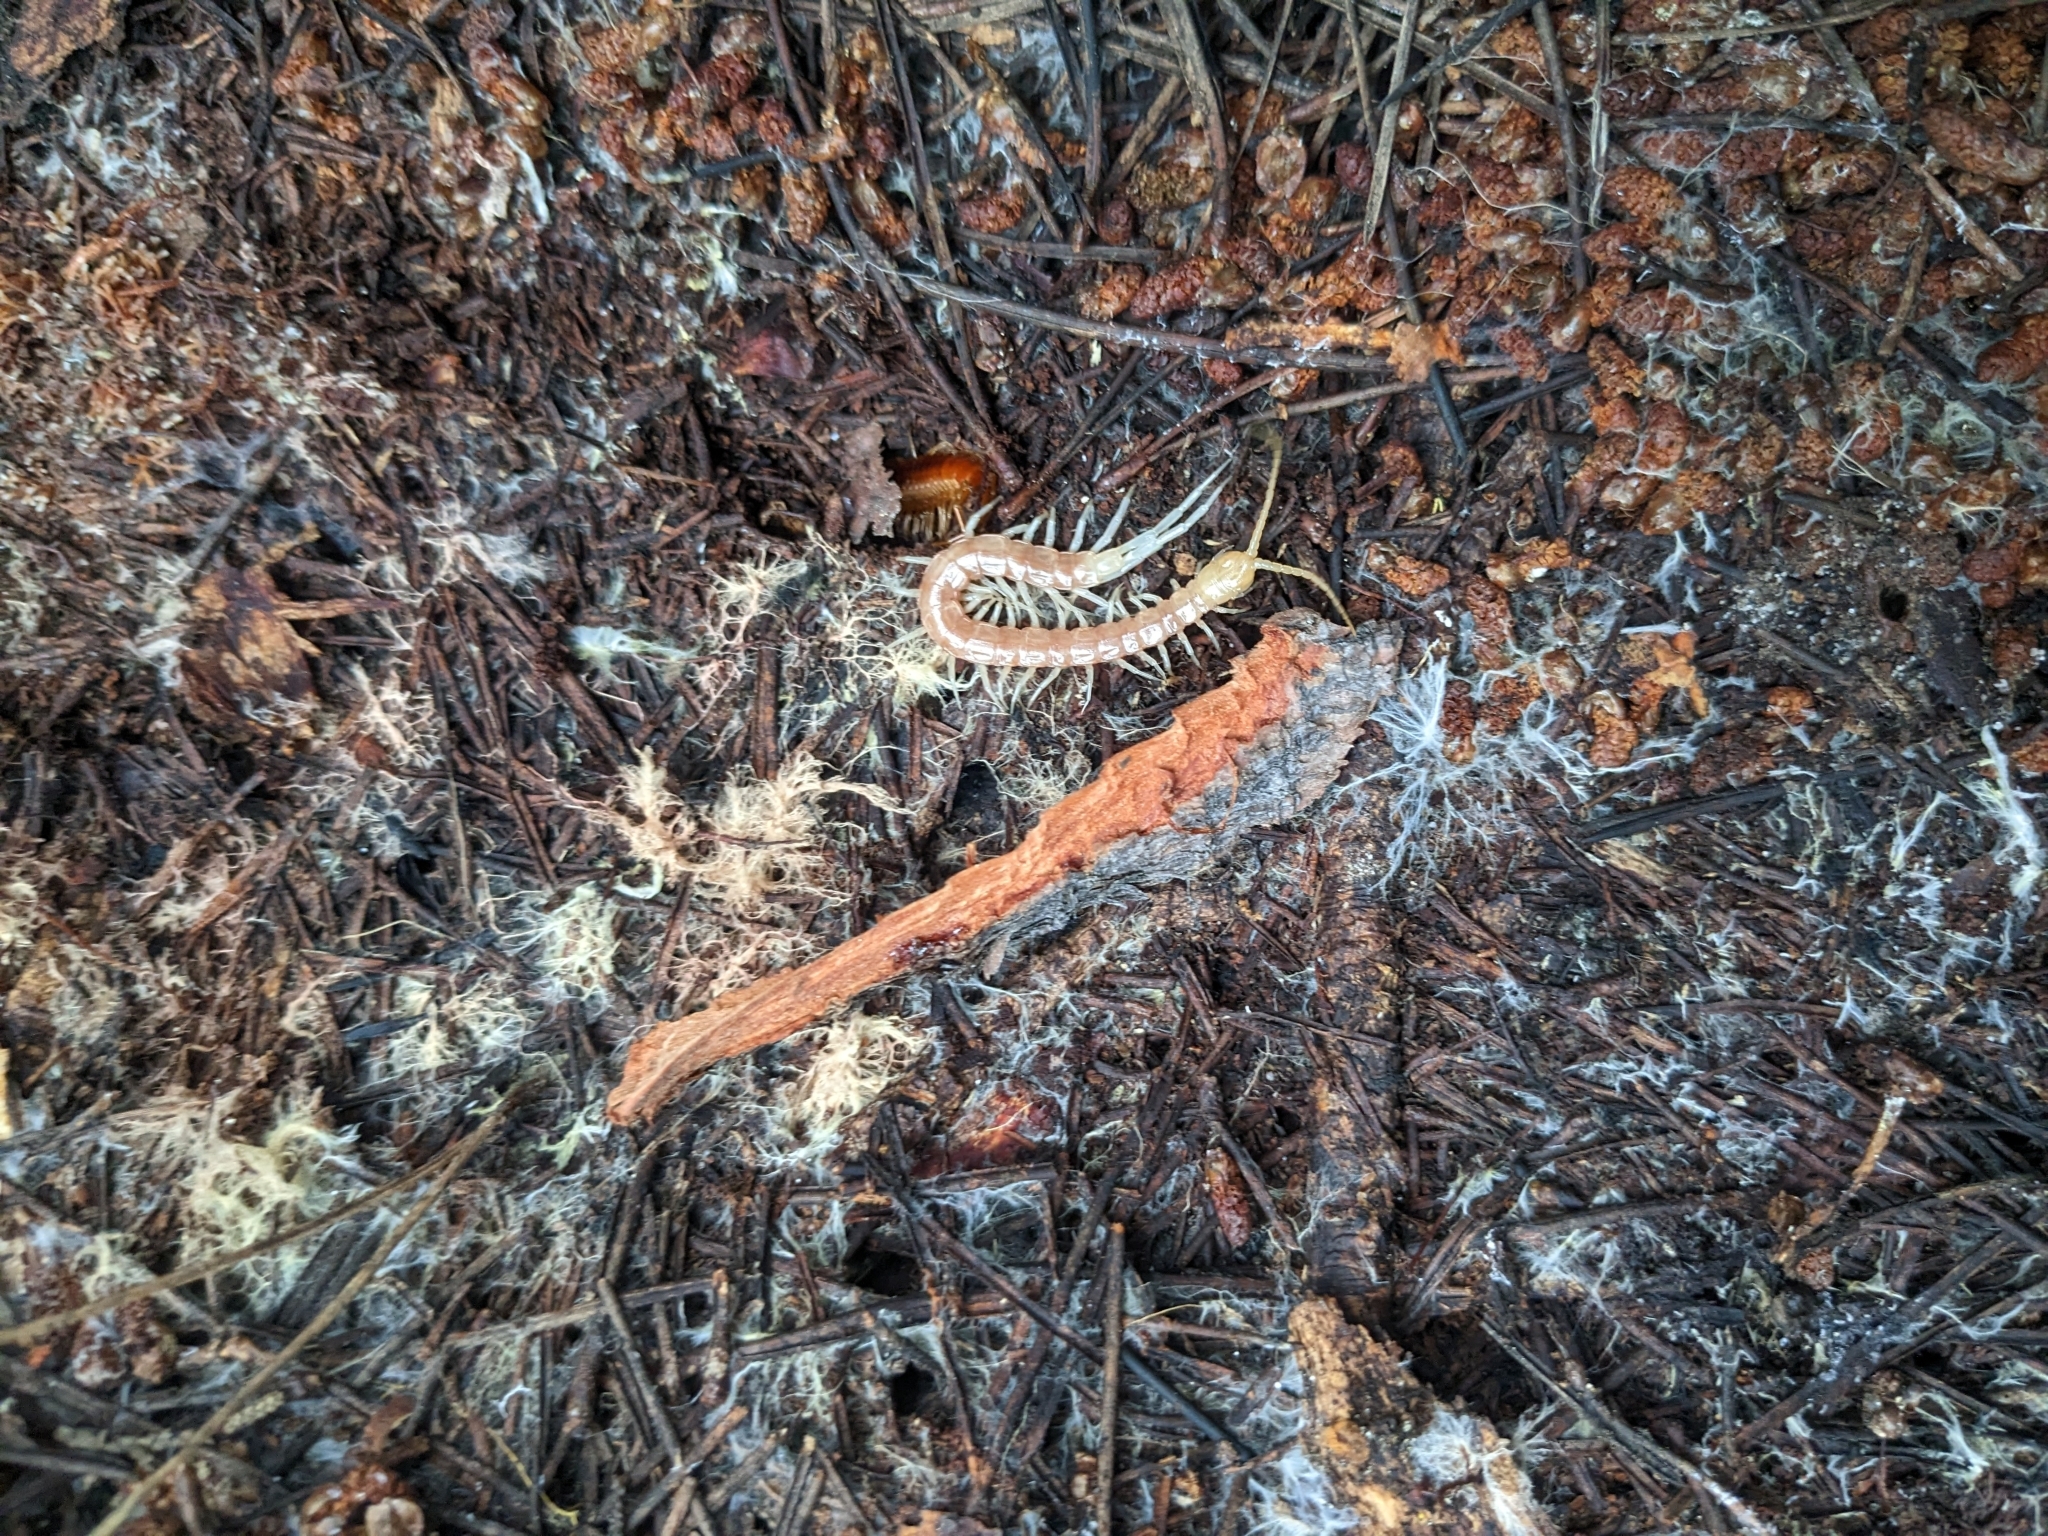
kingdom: Animalia
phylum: Arthropoda
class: Chilopoda
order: Scolopendromorpha
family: Scolopocryptopidae
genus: Scolopocryptops
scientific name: Scolopocryptops gracilis
